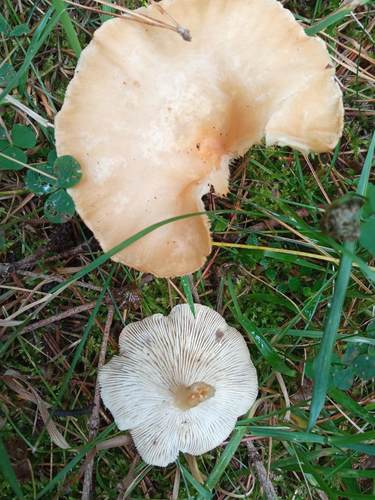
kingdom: Fungi
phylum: Basidiomycota
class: Agaricomycetes
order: Agaricales
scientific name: Agaricales
